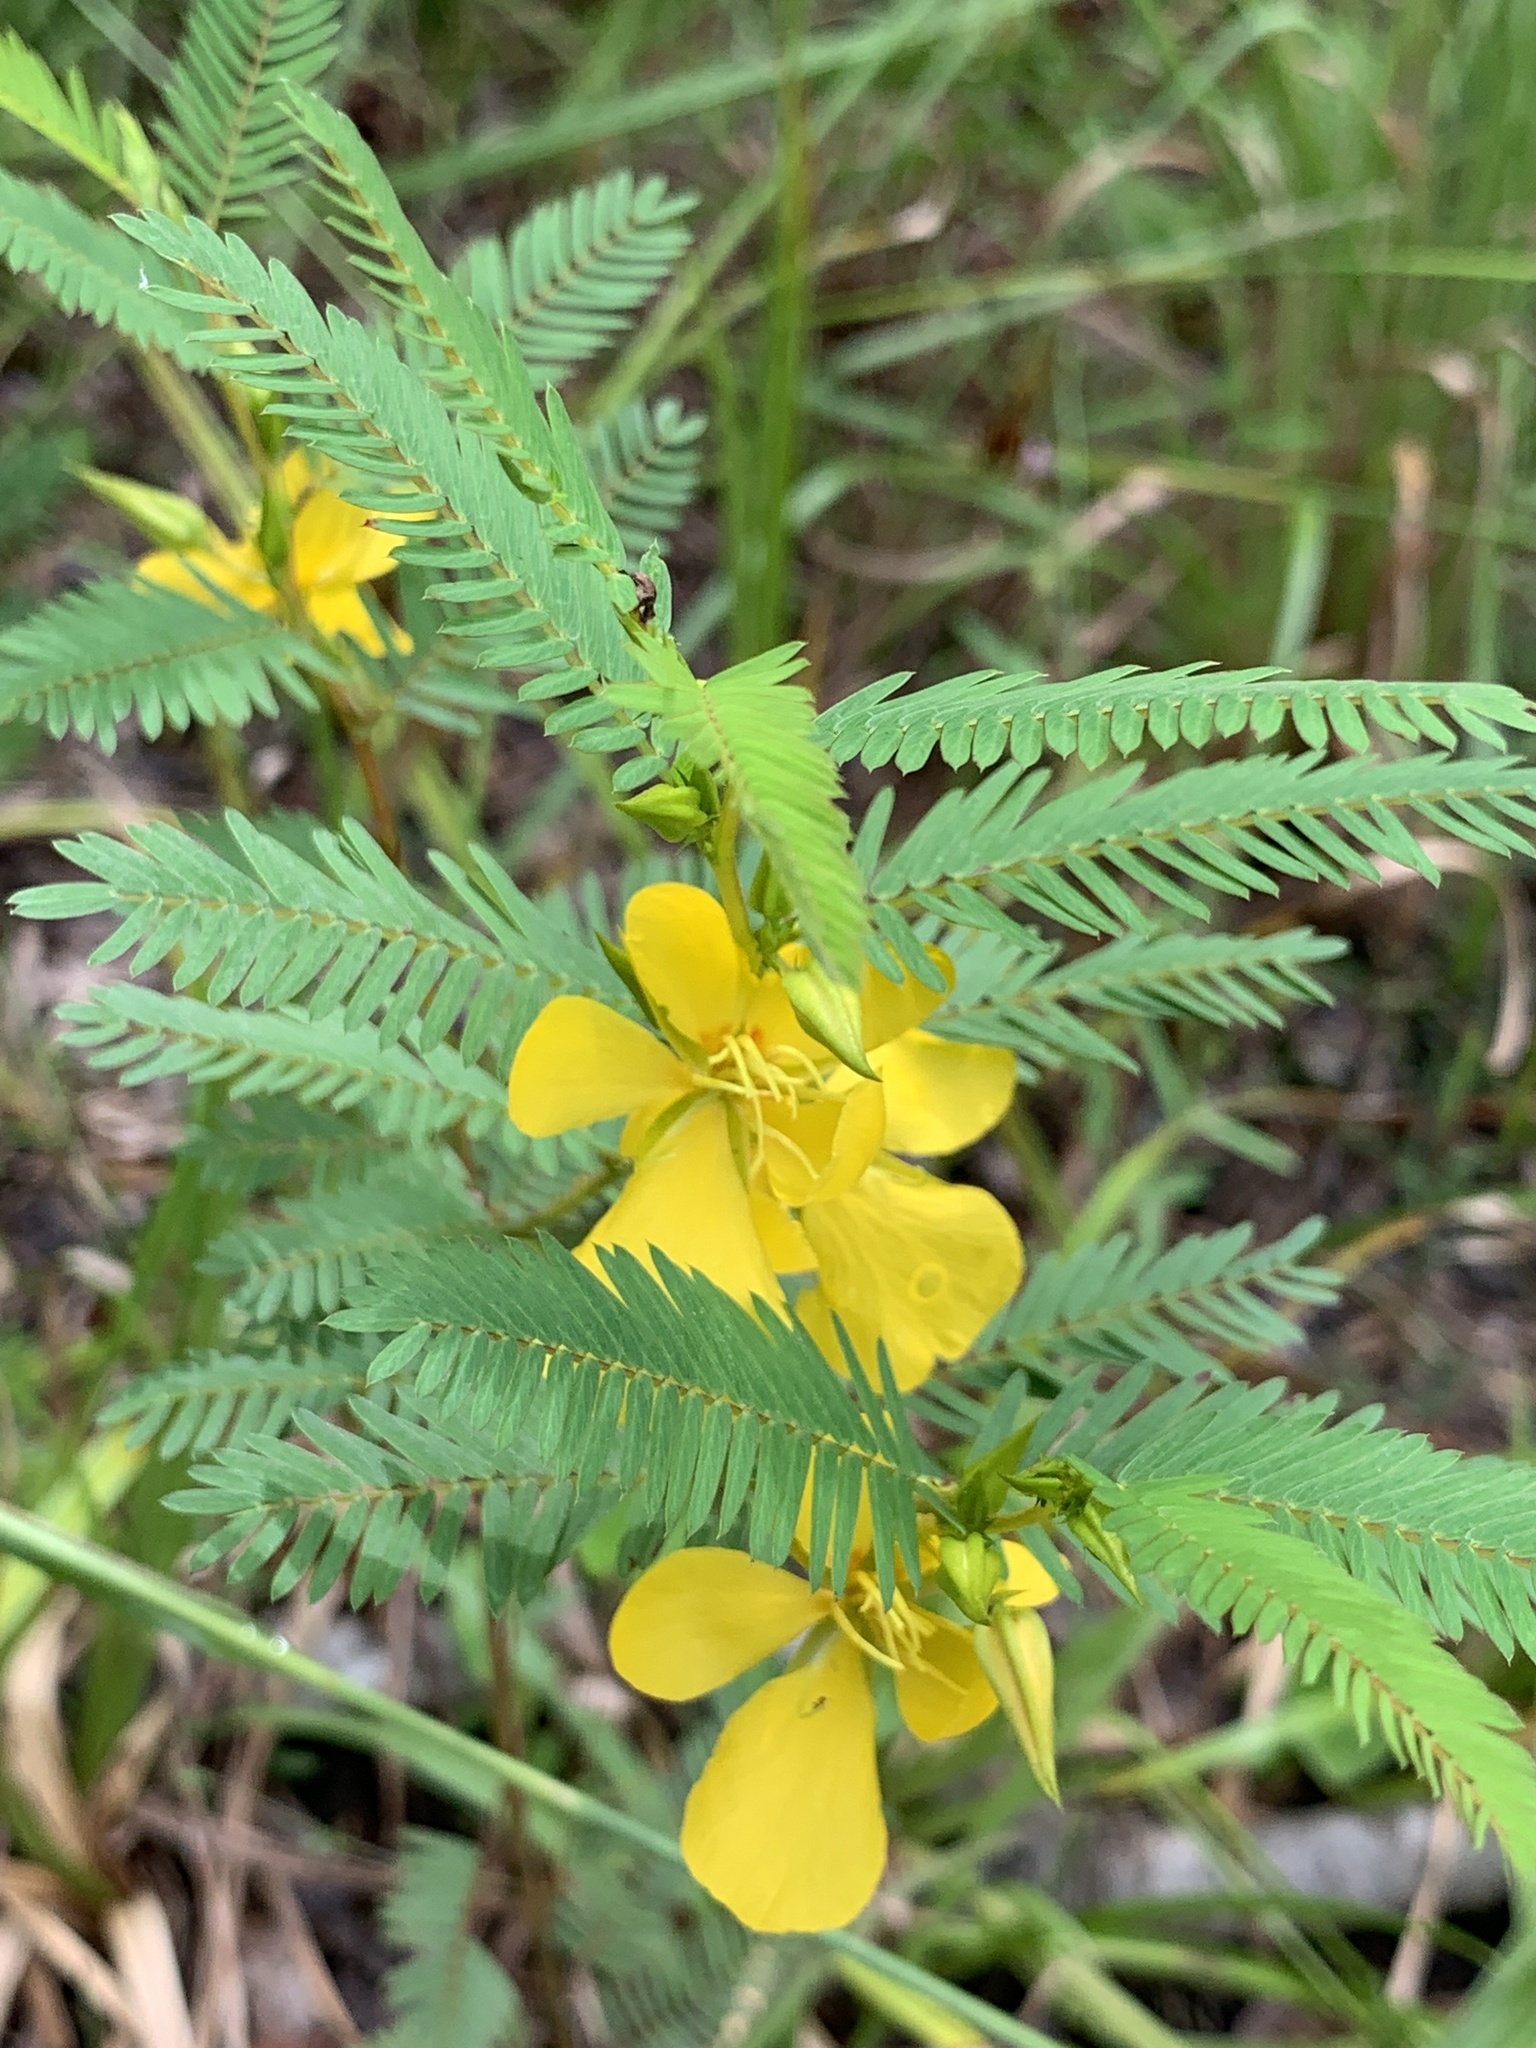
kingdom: Plantae
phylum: Tracheophyta
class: Magnoliopsida
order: Fabales
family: Fabaceae
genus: Chamaecrista
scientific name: Chamaecrista fasciculata
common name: Golden cassia
